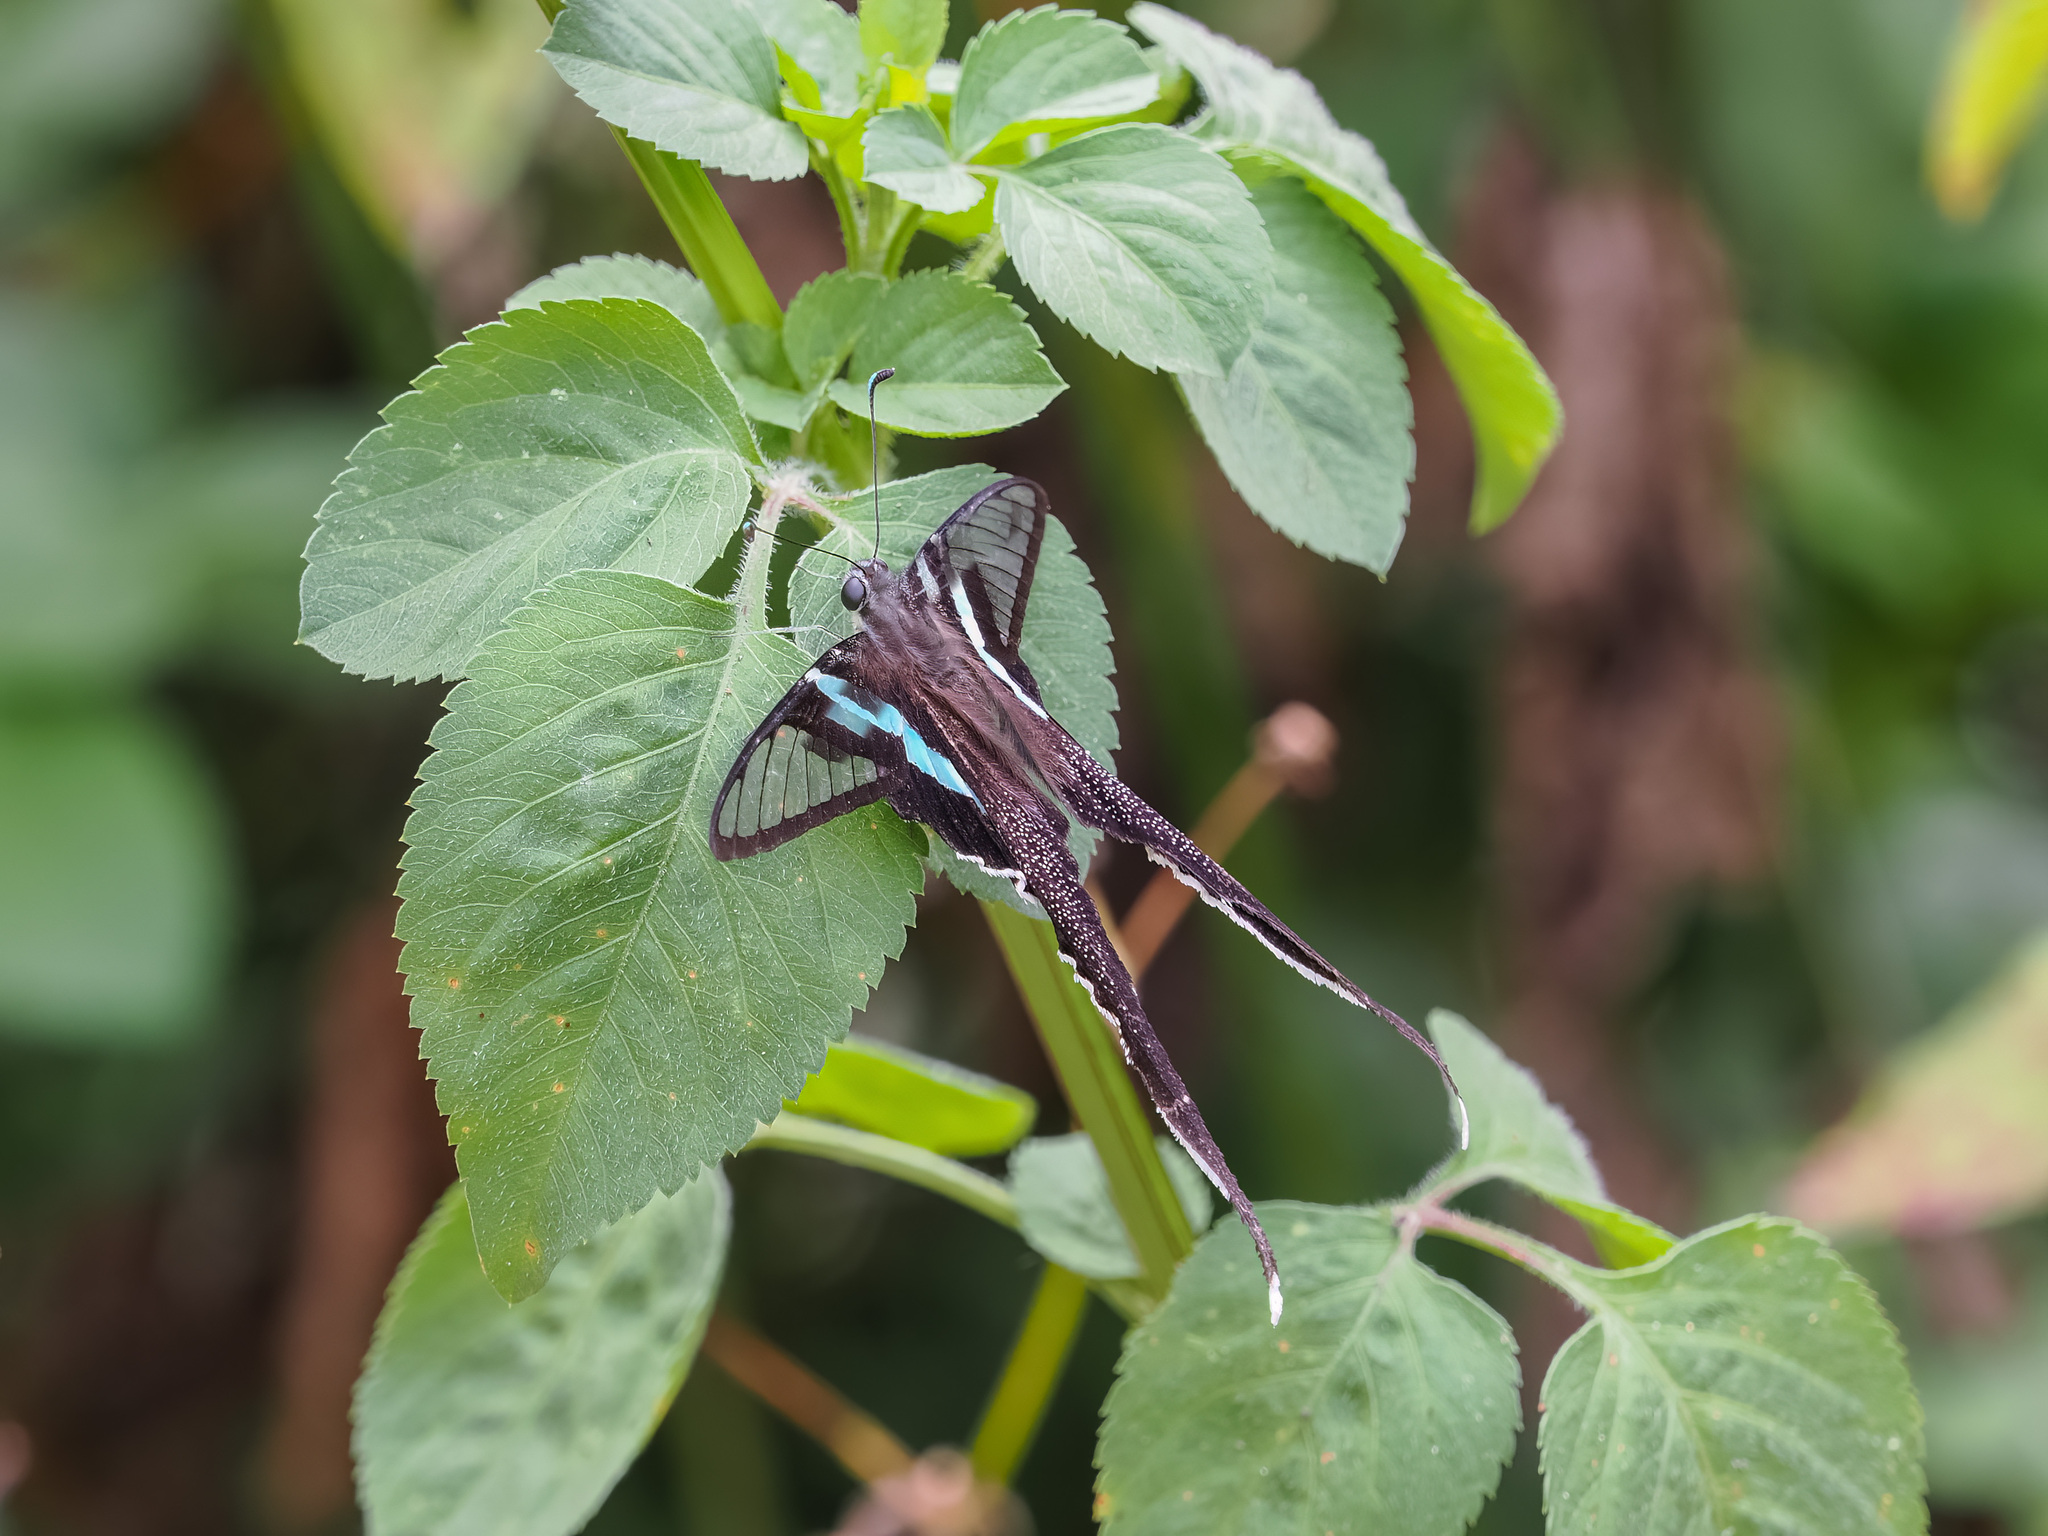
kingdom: Animalia
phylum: Arthropoda
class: Insecta
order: Lepidoptera
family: Papilionidae
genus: Lamproptera
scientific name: Lamproptera meges
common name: Green dragontail
